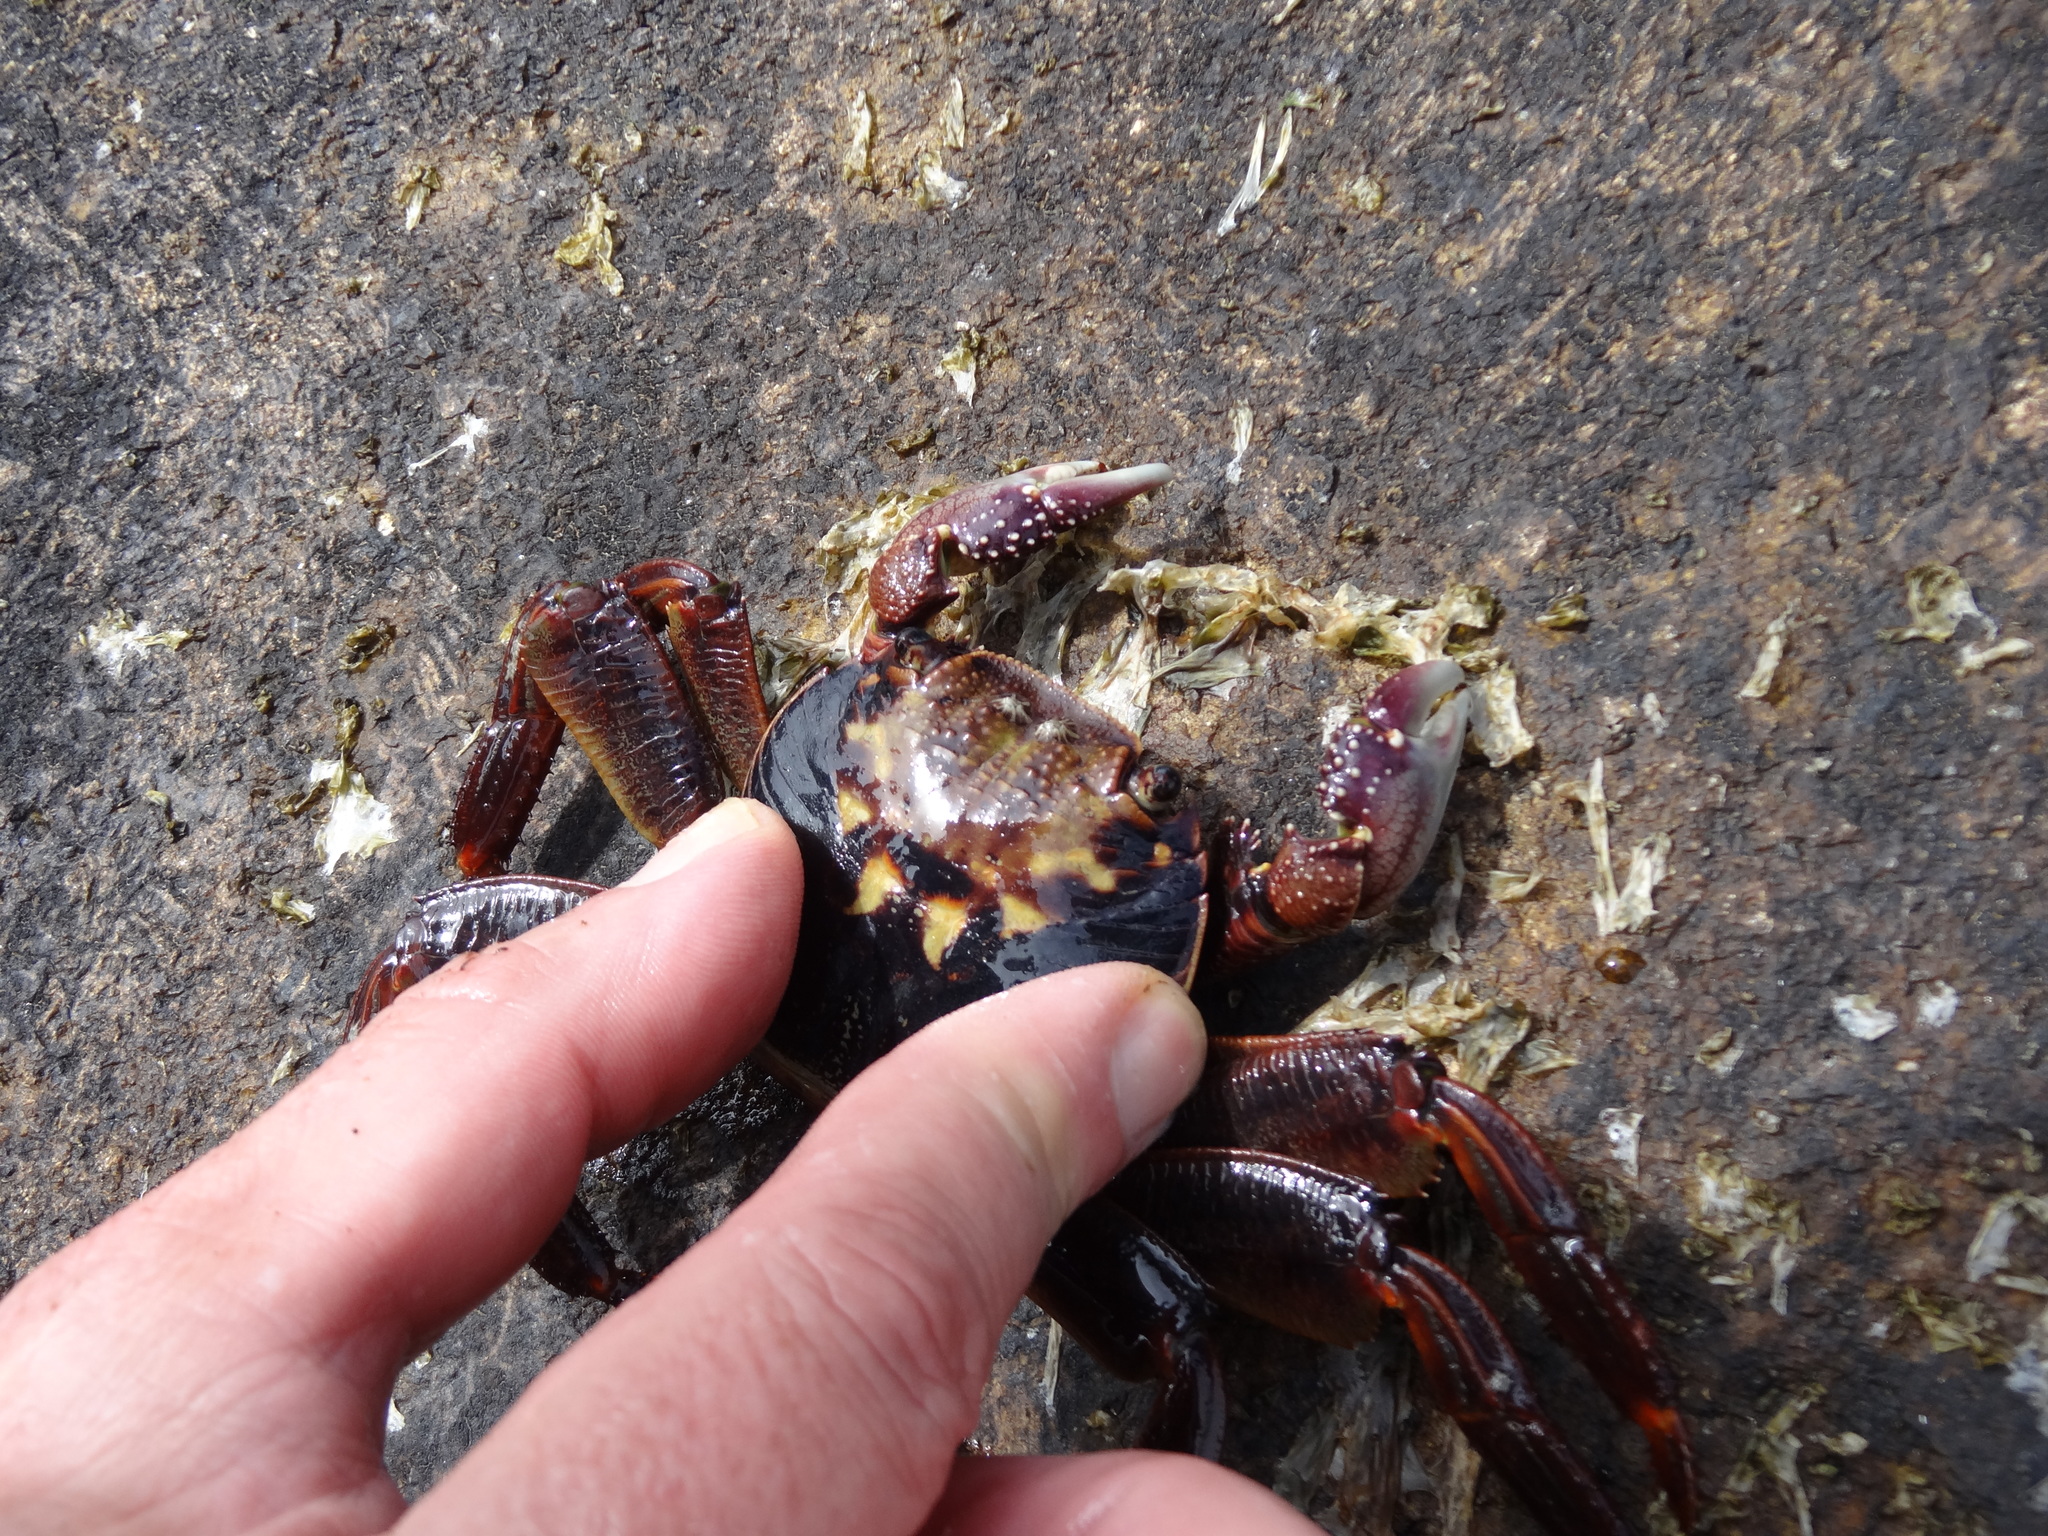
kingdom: Animalia
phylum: Arthropoda
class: Malacostraca
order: Decapoda
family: Grapsidae
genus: Leptograpsus
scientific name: Leptograpsus variegatus
